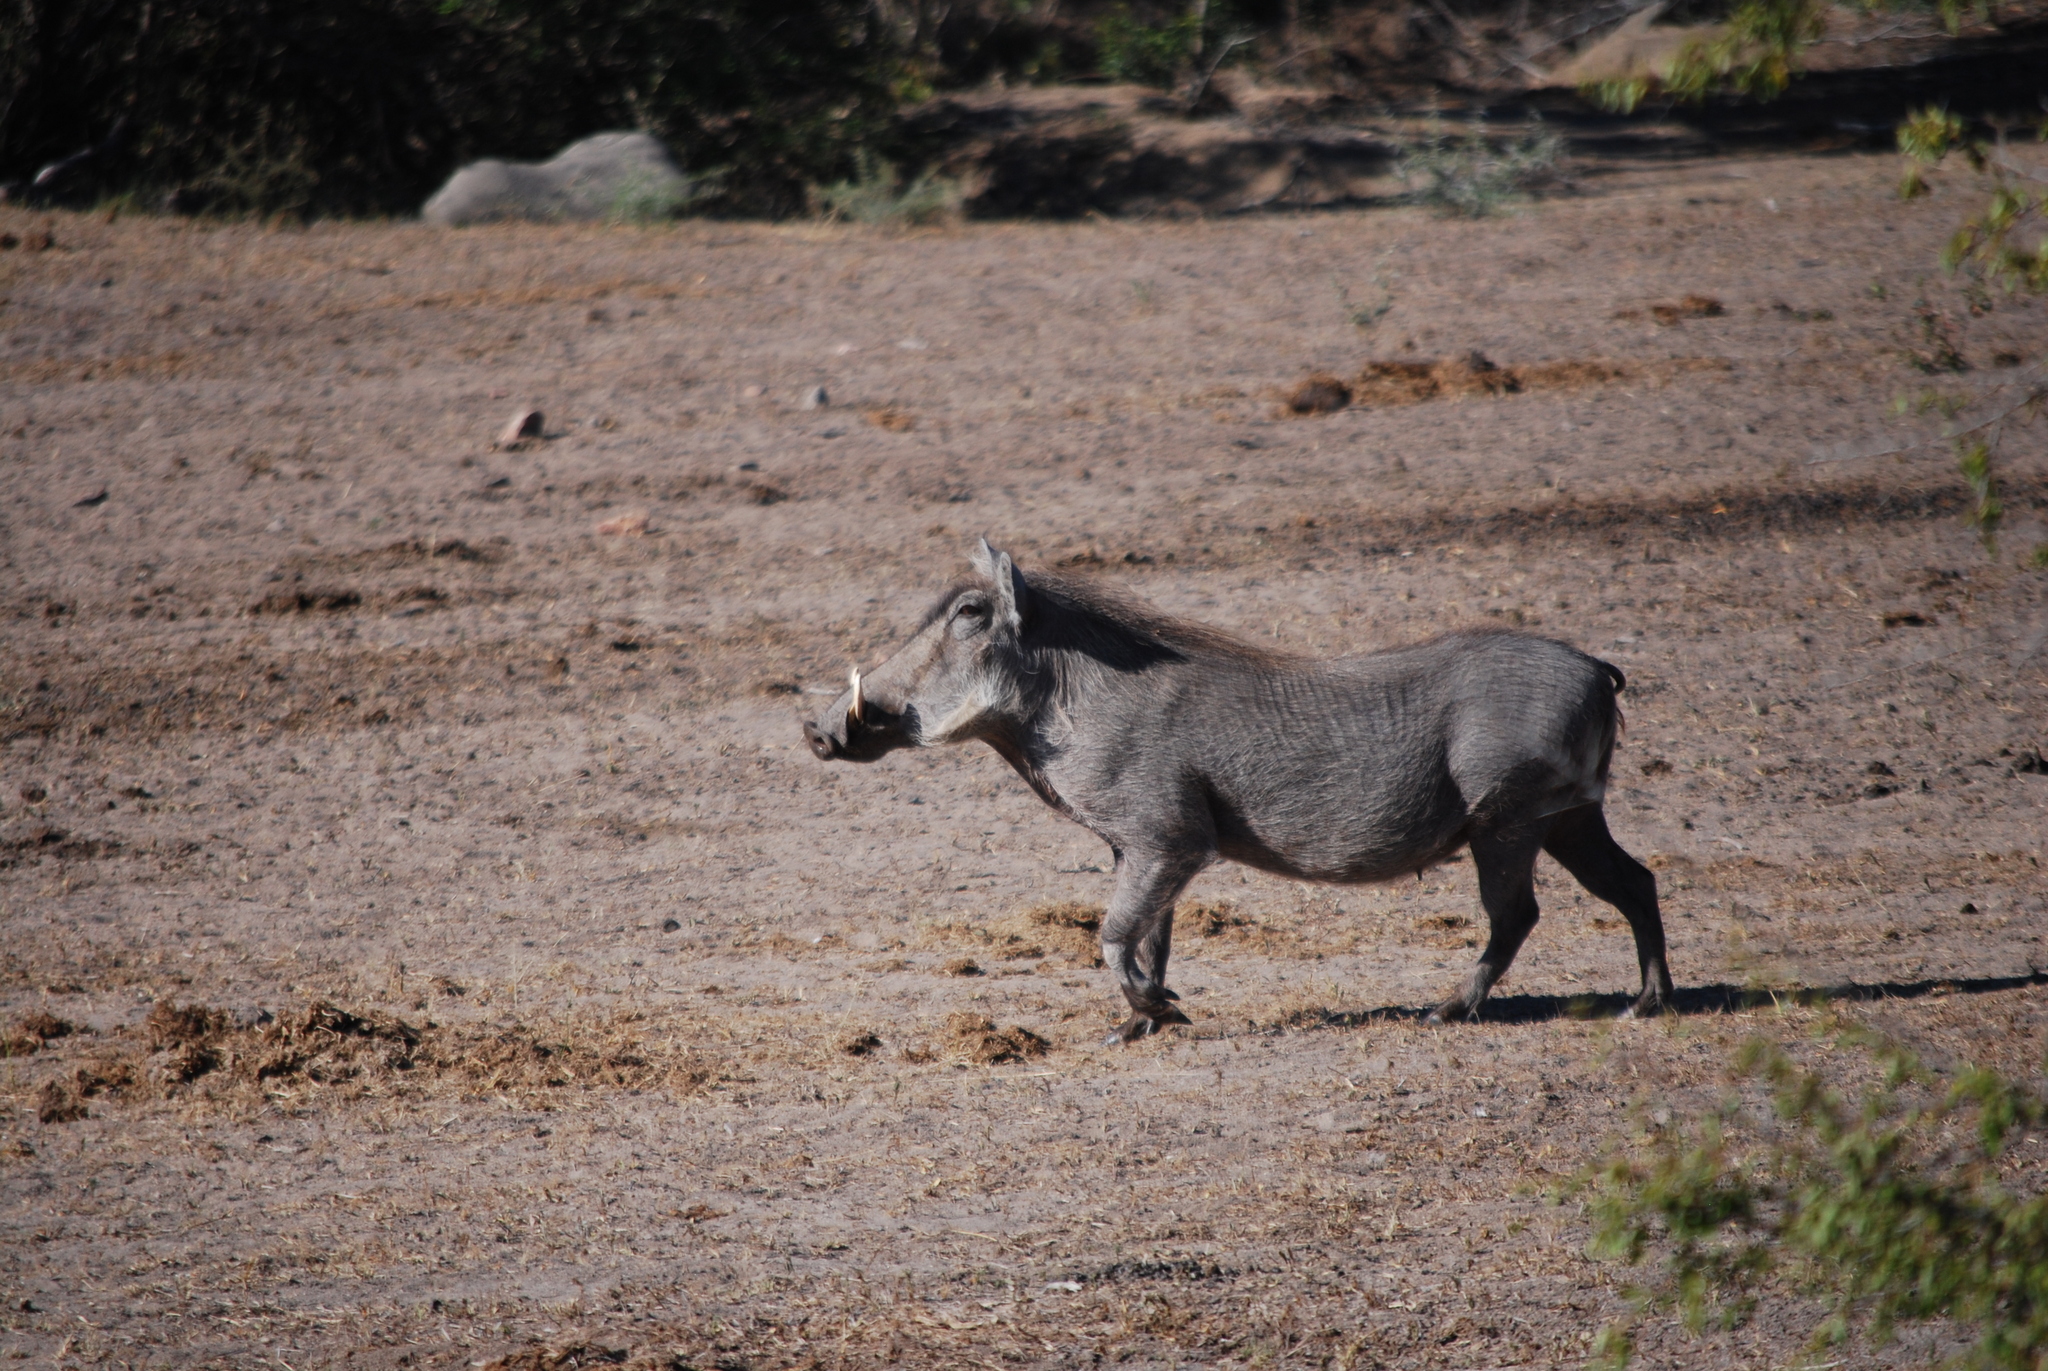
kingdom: Animalia
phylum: Chordata
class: Mammalia
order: Artiodactyla
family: Suidae
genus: Phacochoerus
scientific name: Phacochoerus africanus
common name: Common warthog
